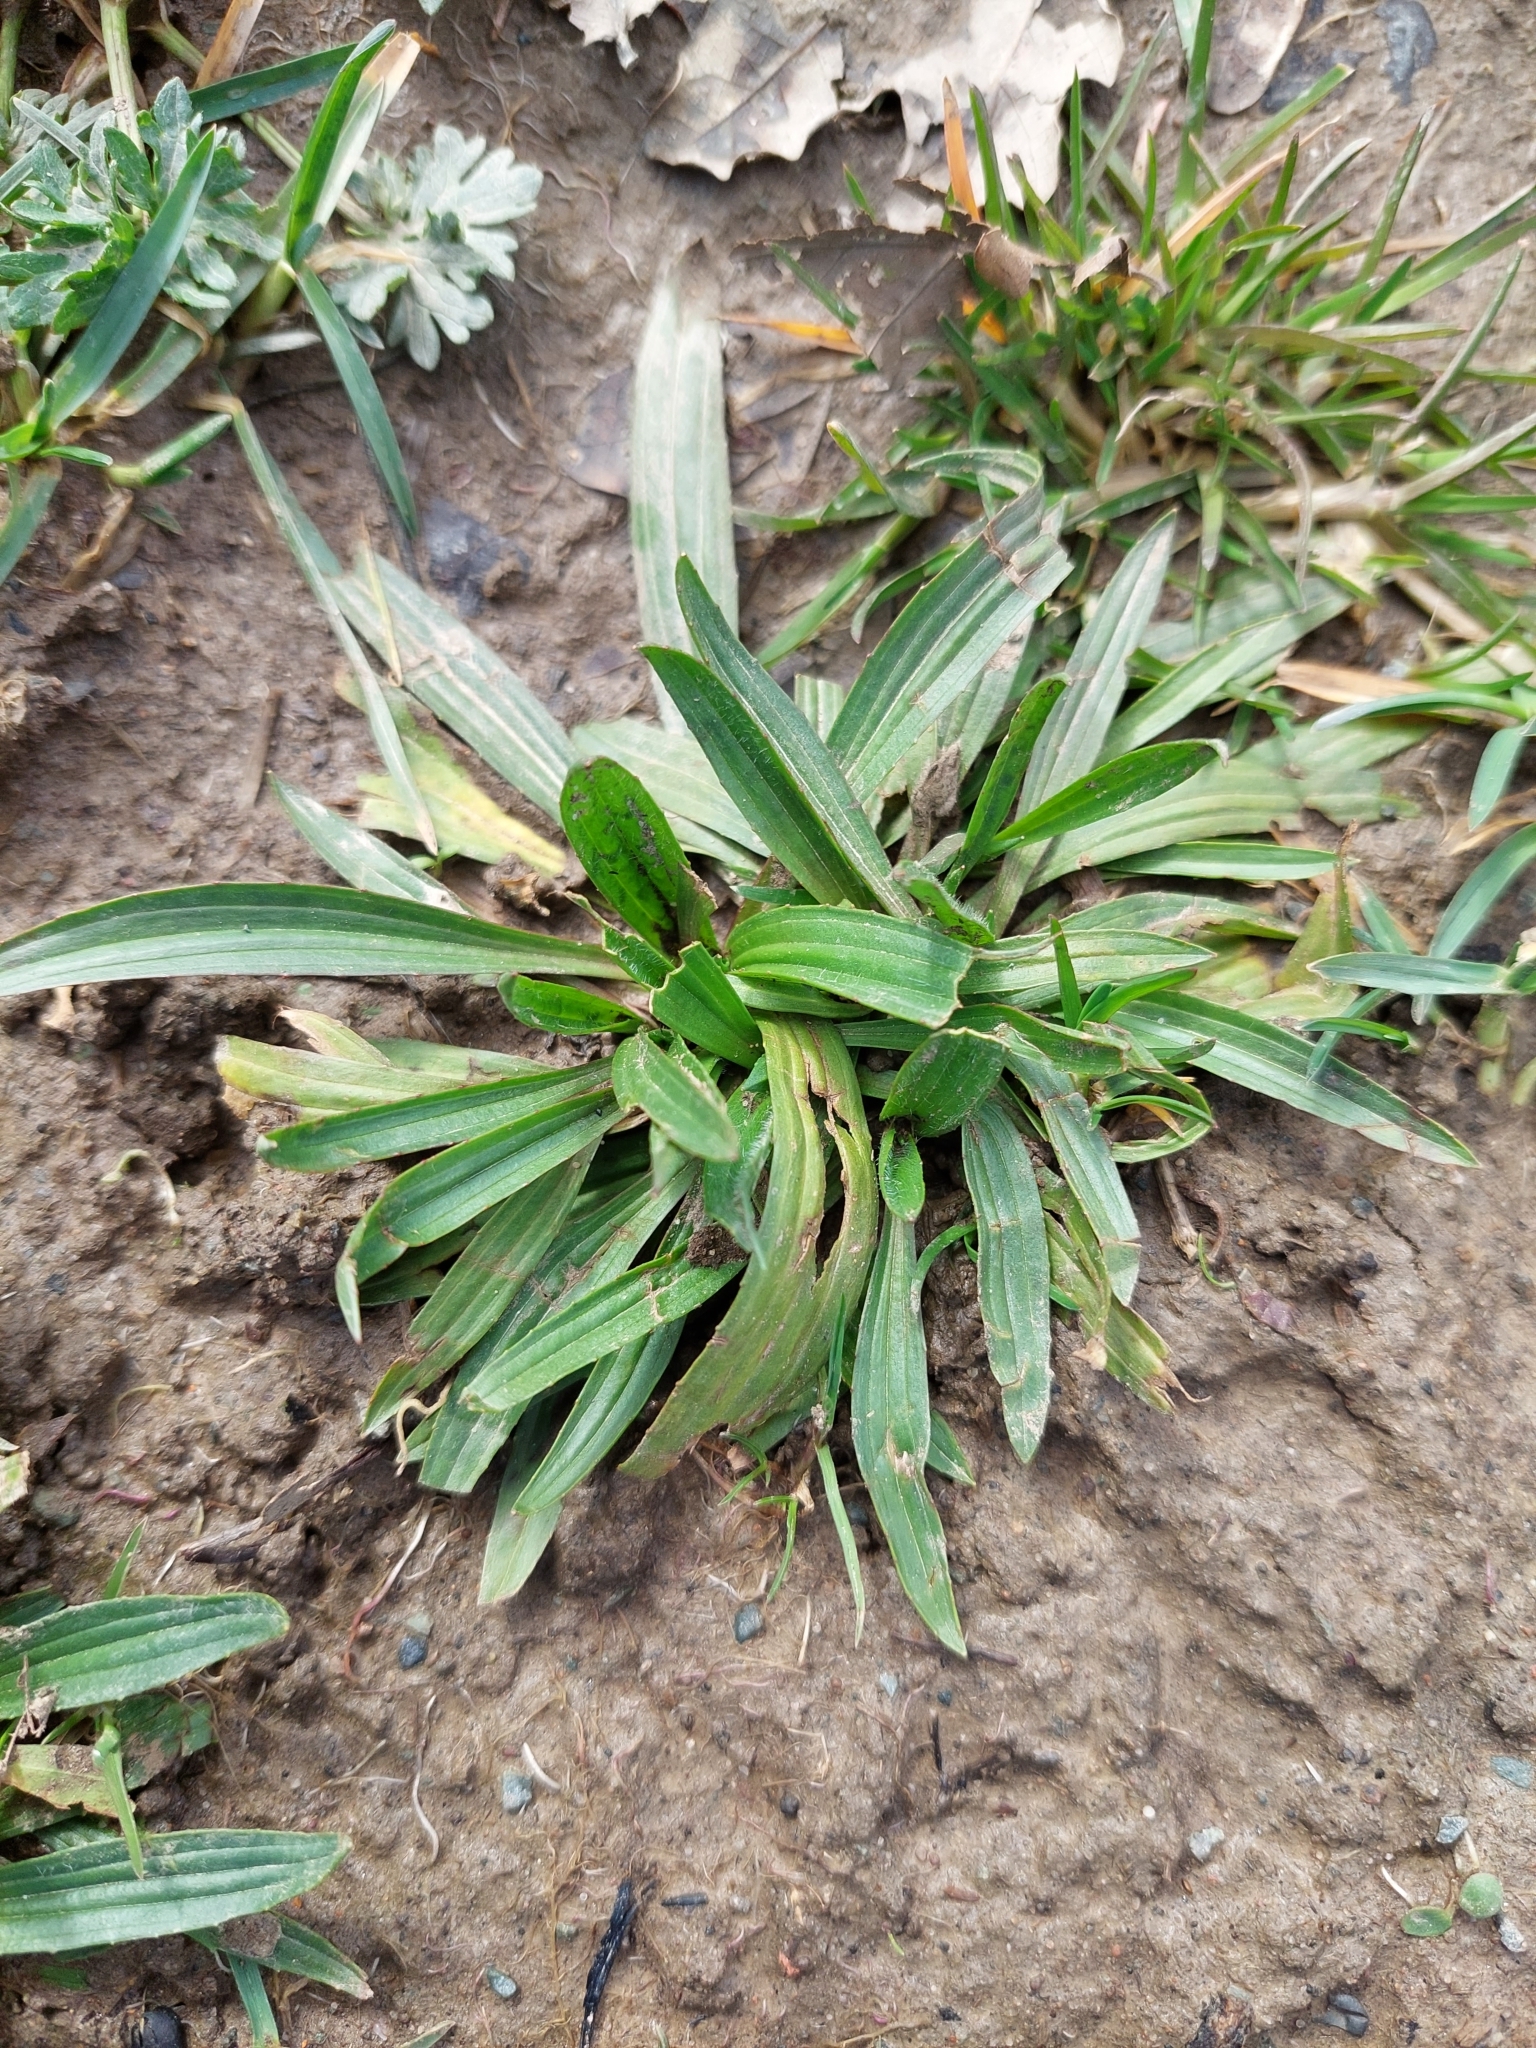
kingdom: Plantae
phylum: Tracheophyta
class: Magnoliopsida
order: Lamiales
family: Plantaginaceae
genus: Plantago
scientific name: Plantago lanceolata
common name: Ribwort plantain
